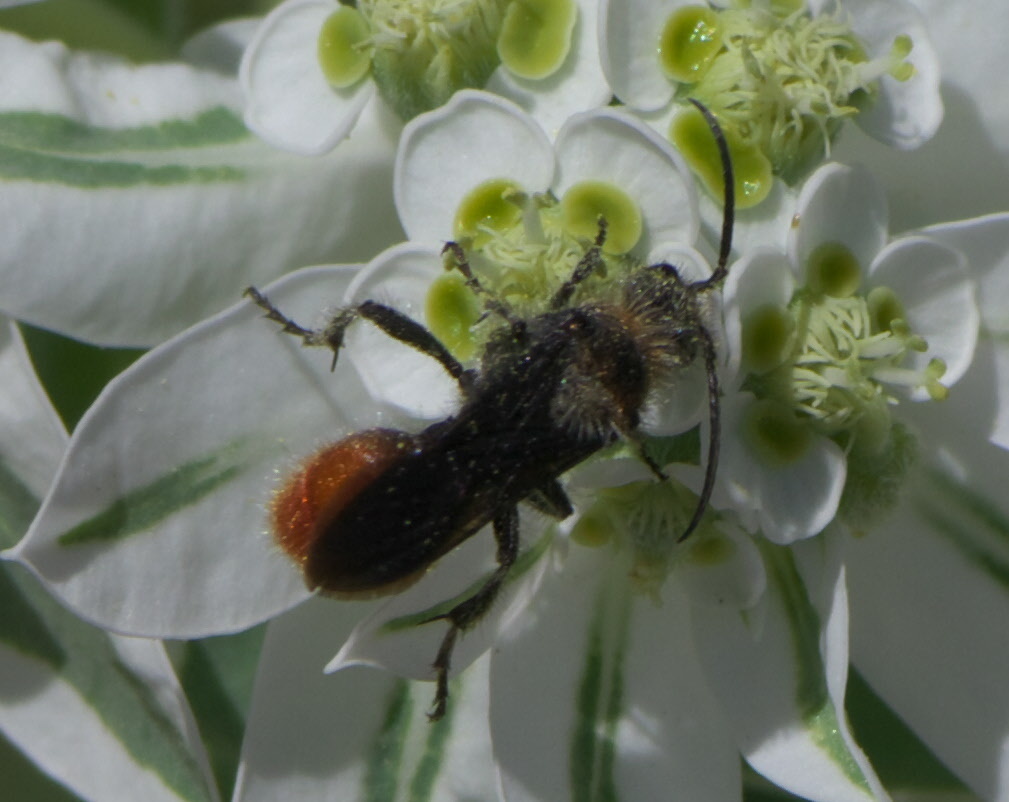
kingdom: Animalia
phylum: Arthropoda
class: Insecta
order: Hymenoptera
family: Mutillidae
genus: Dasymutilla
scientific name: Dasymutilla foxi
